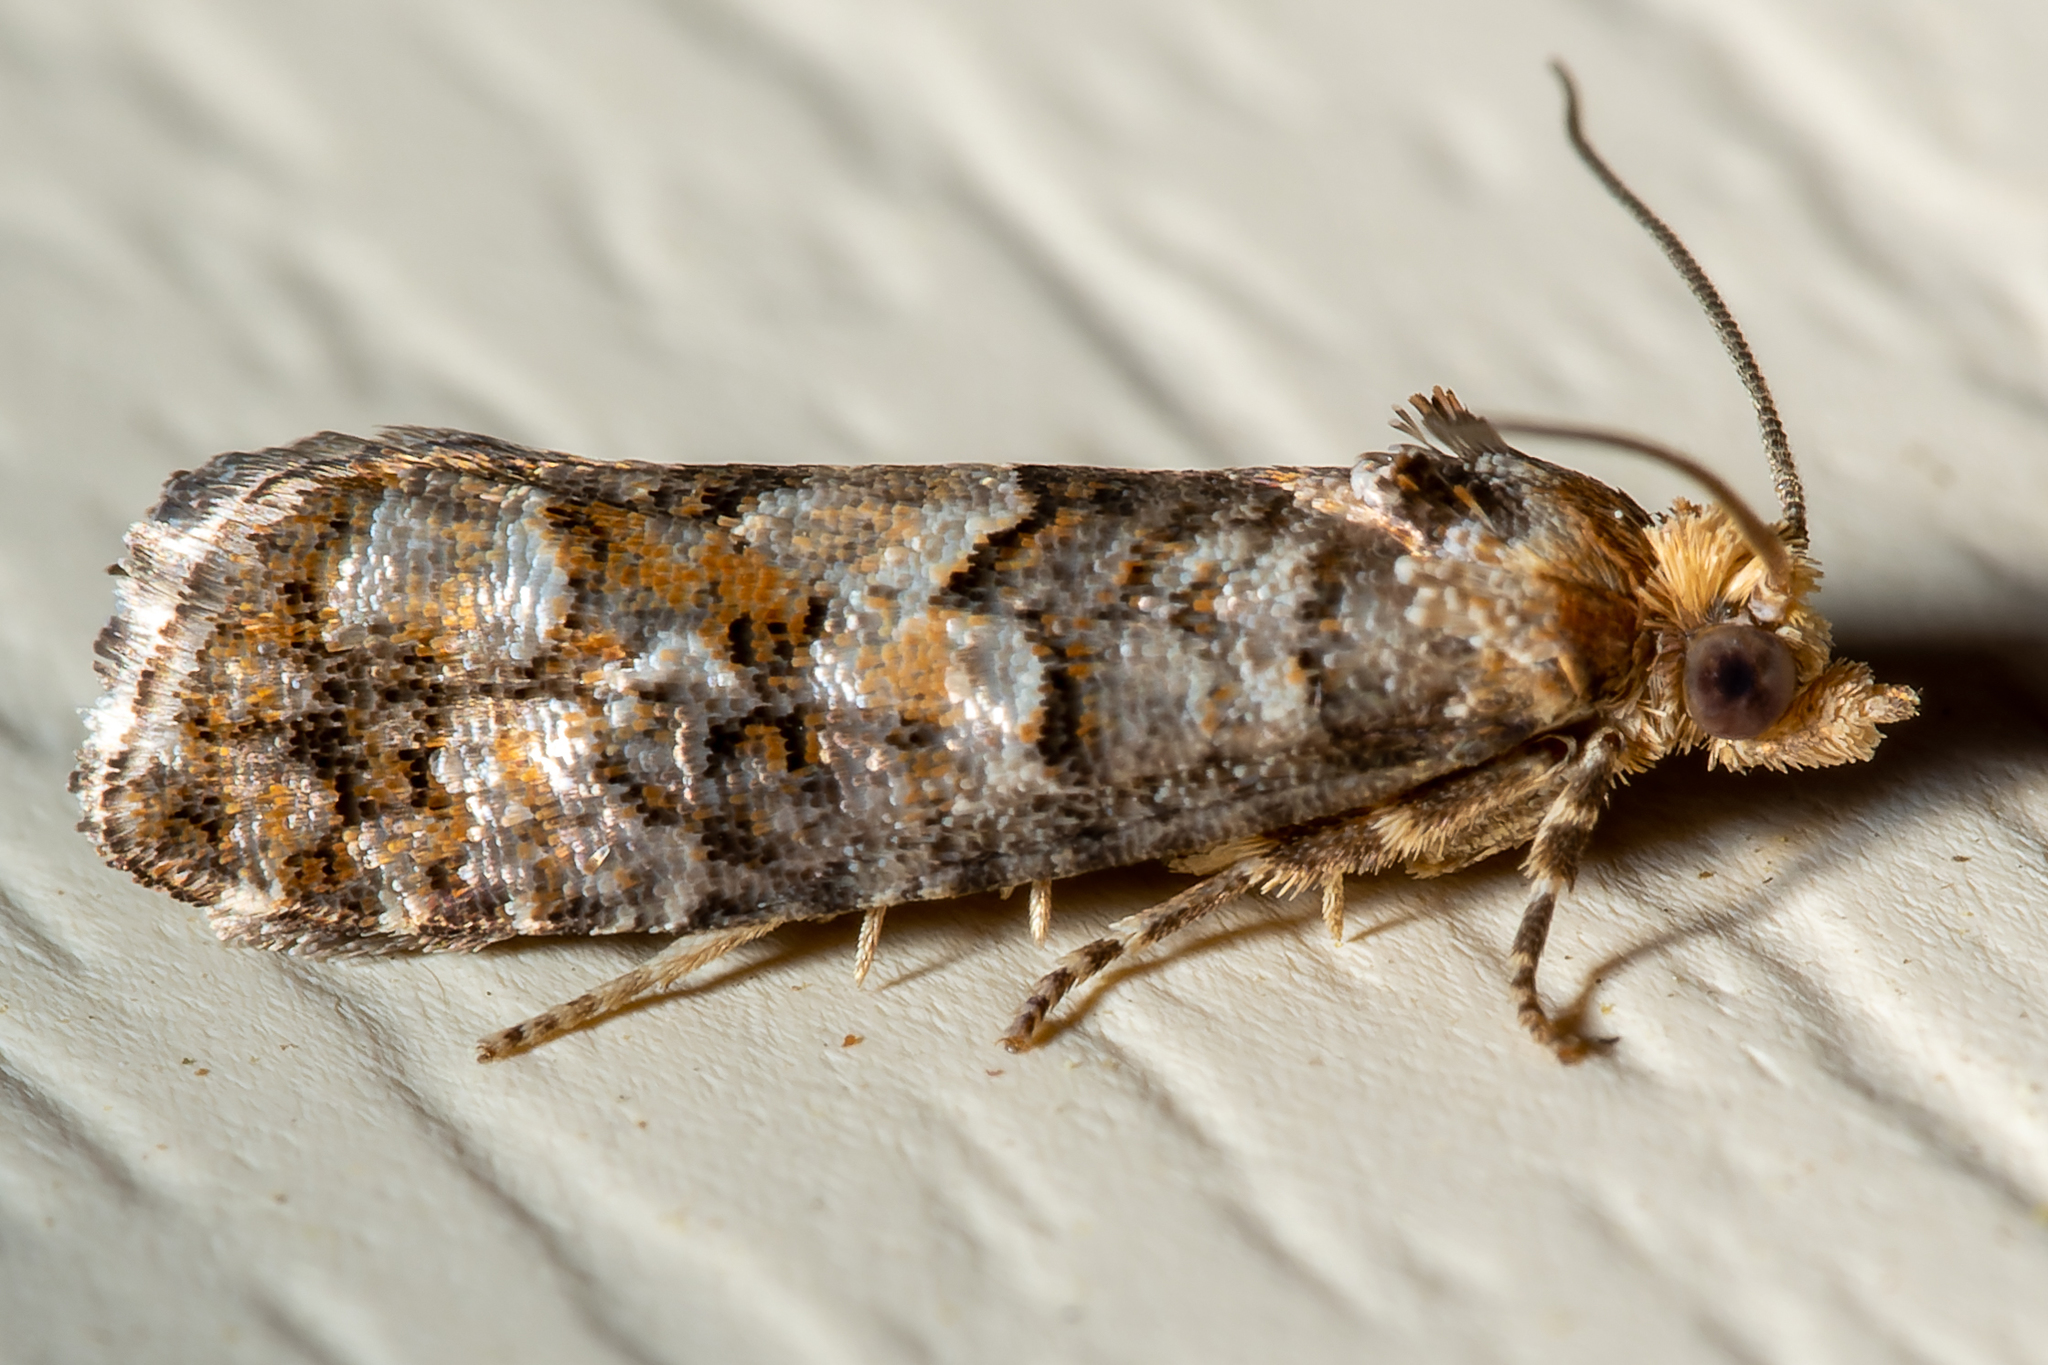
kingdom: Animalia
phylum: Arthropoda
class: Insecta
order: Lepidoptera
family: Tortricidae
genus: Eucopina
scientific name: Eucopina tocullionana
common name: White pinecone borer moth
